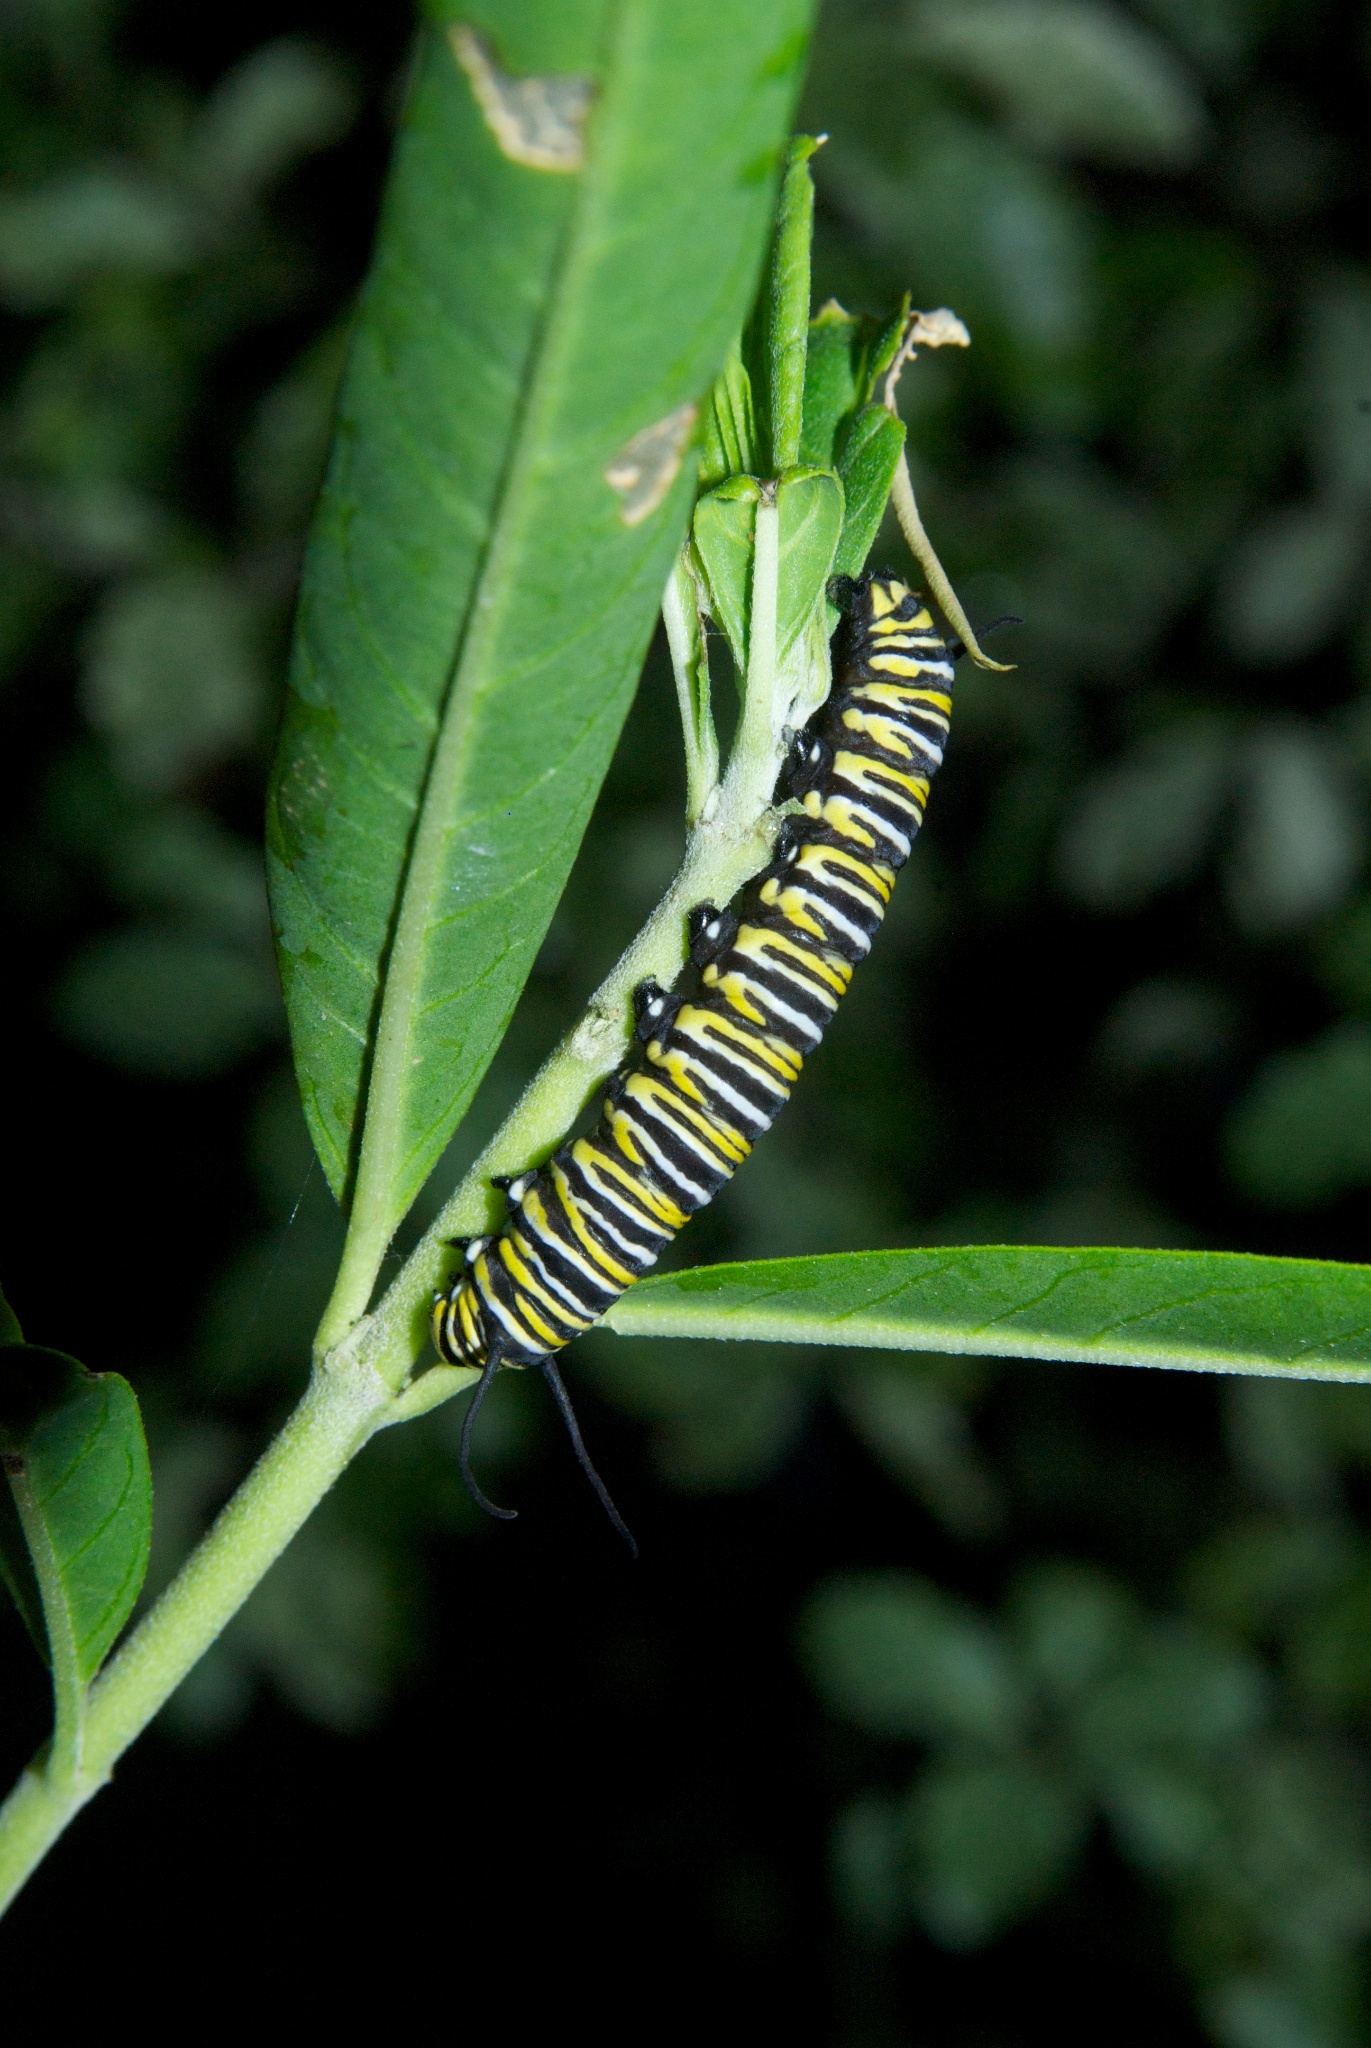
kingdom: Animalia
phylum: Arthropoda
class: Insecta
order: Lepidoptera
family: Nymphalidae
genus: Danaus
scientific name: Danaus plexippus
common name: Monarch
